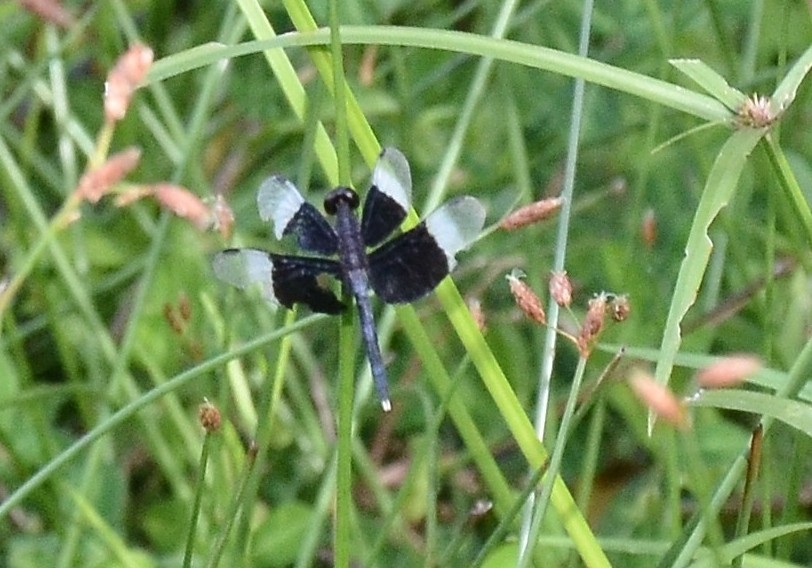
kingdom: Animalia
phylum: Arthropoda
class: Insecta
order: Odonata
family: Libellulidae
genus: Neurothemis
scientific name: Neurothemis tullia
